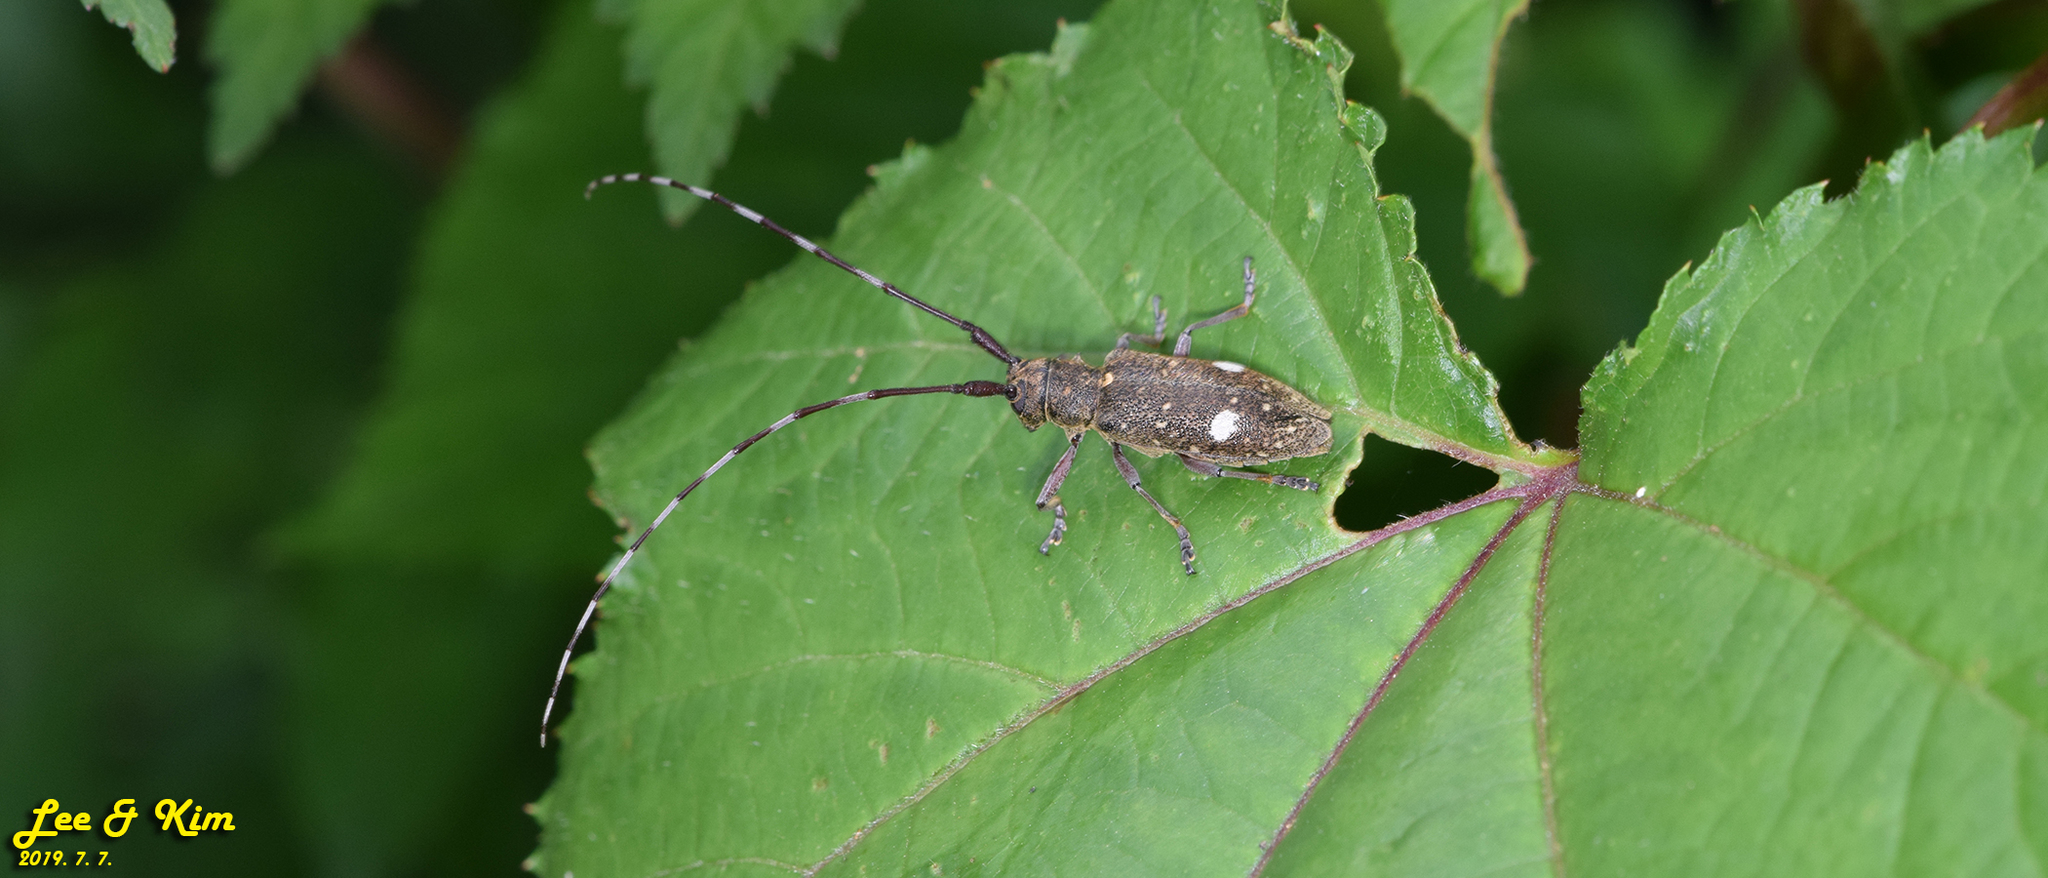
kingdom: Animalia
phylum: Arthropoda
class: Insecta
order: Coleoptera
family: Cerambycidae
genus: Monochamus
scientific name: Monochamus guttulatus
